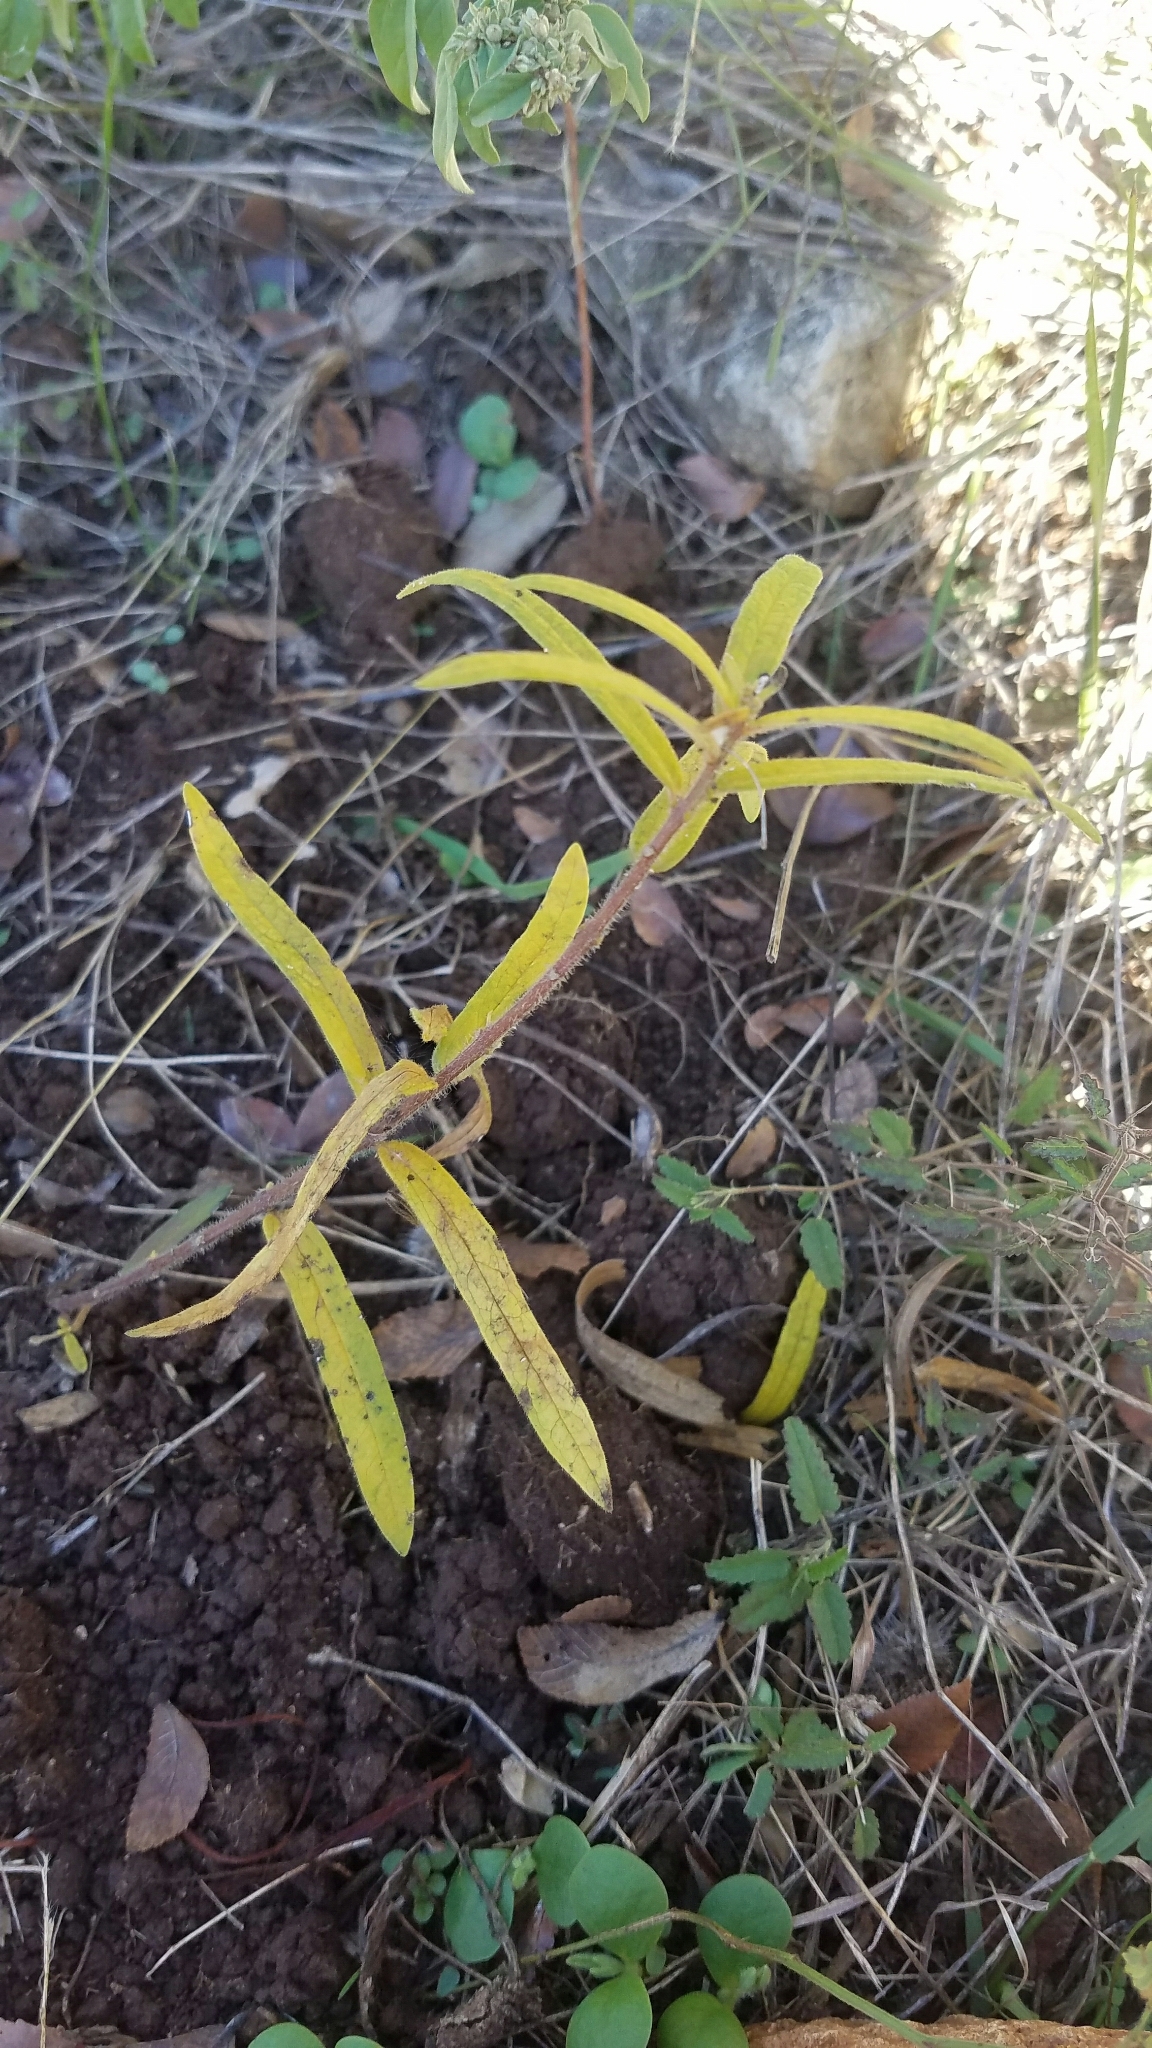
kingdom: Plantae
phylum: Tracheophyta
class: Magnoliopsida
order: Gentianales
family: Apocynaceae
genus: Asclepias
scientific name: Asclepias tuberosa
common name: Butterfly milkweed
